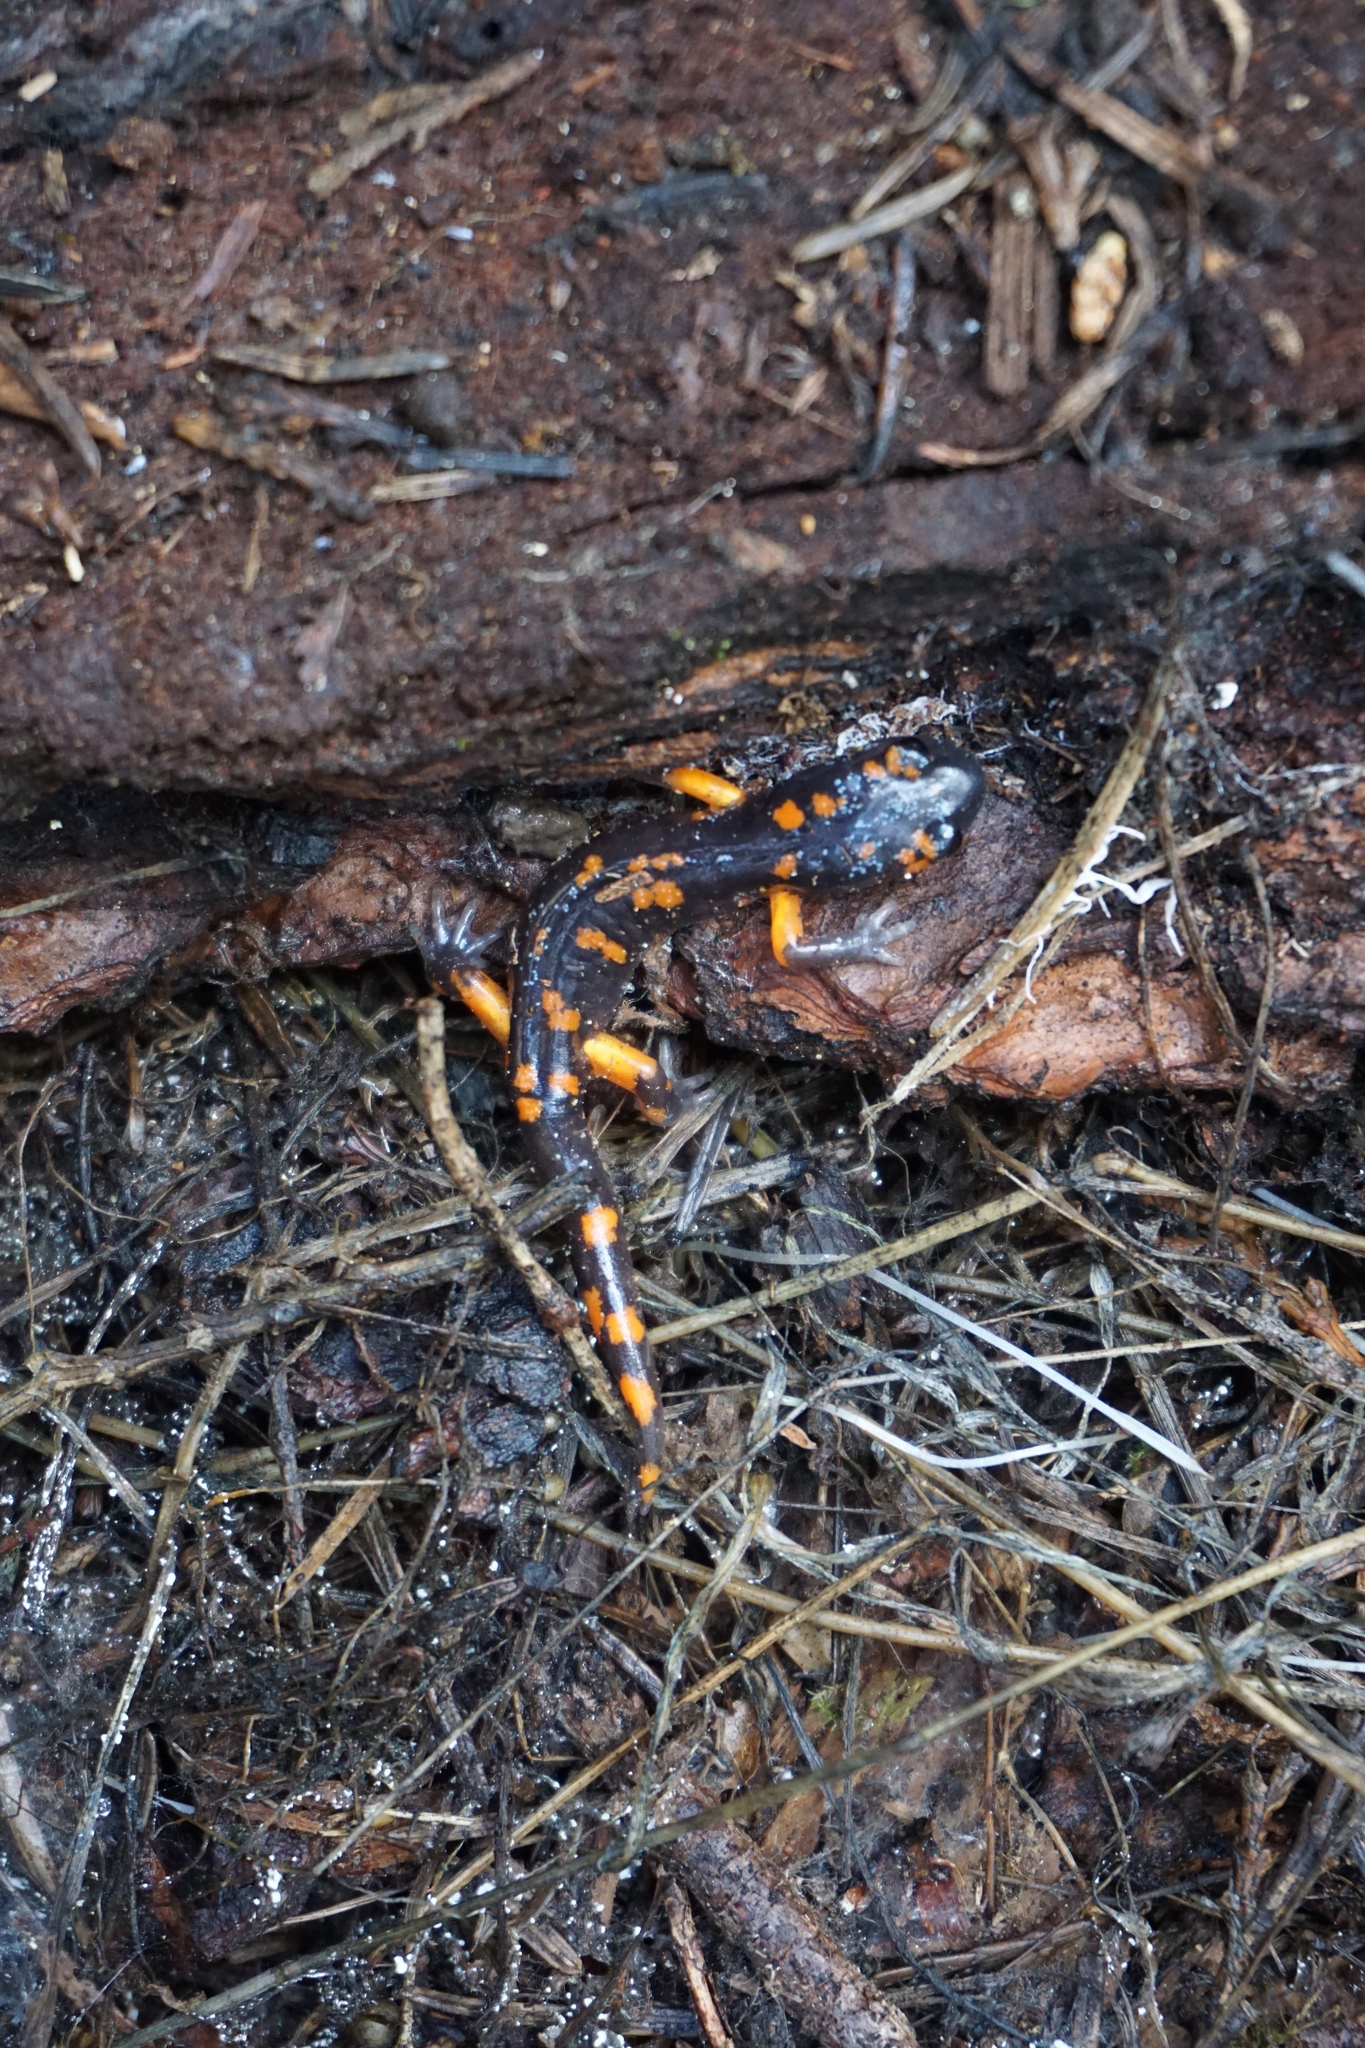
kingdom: Animalia
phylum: Chordata
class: Amphibia
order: Caudata
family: Plethodontidae
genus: Ensatina
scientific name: Ensatina eschscholtzii
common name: Ensatina
